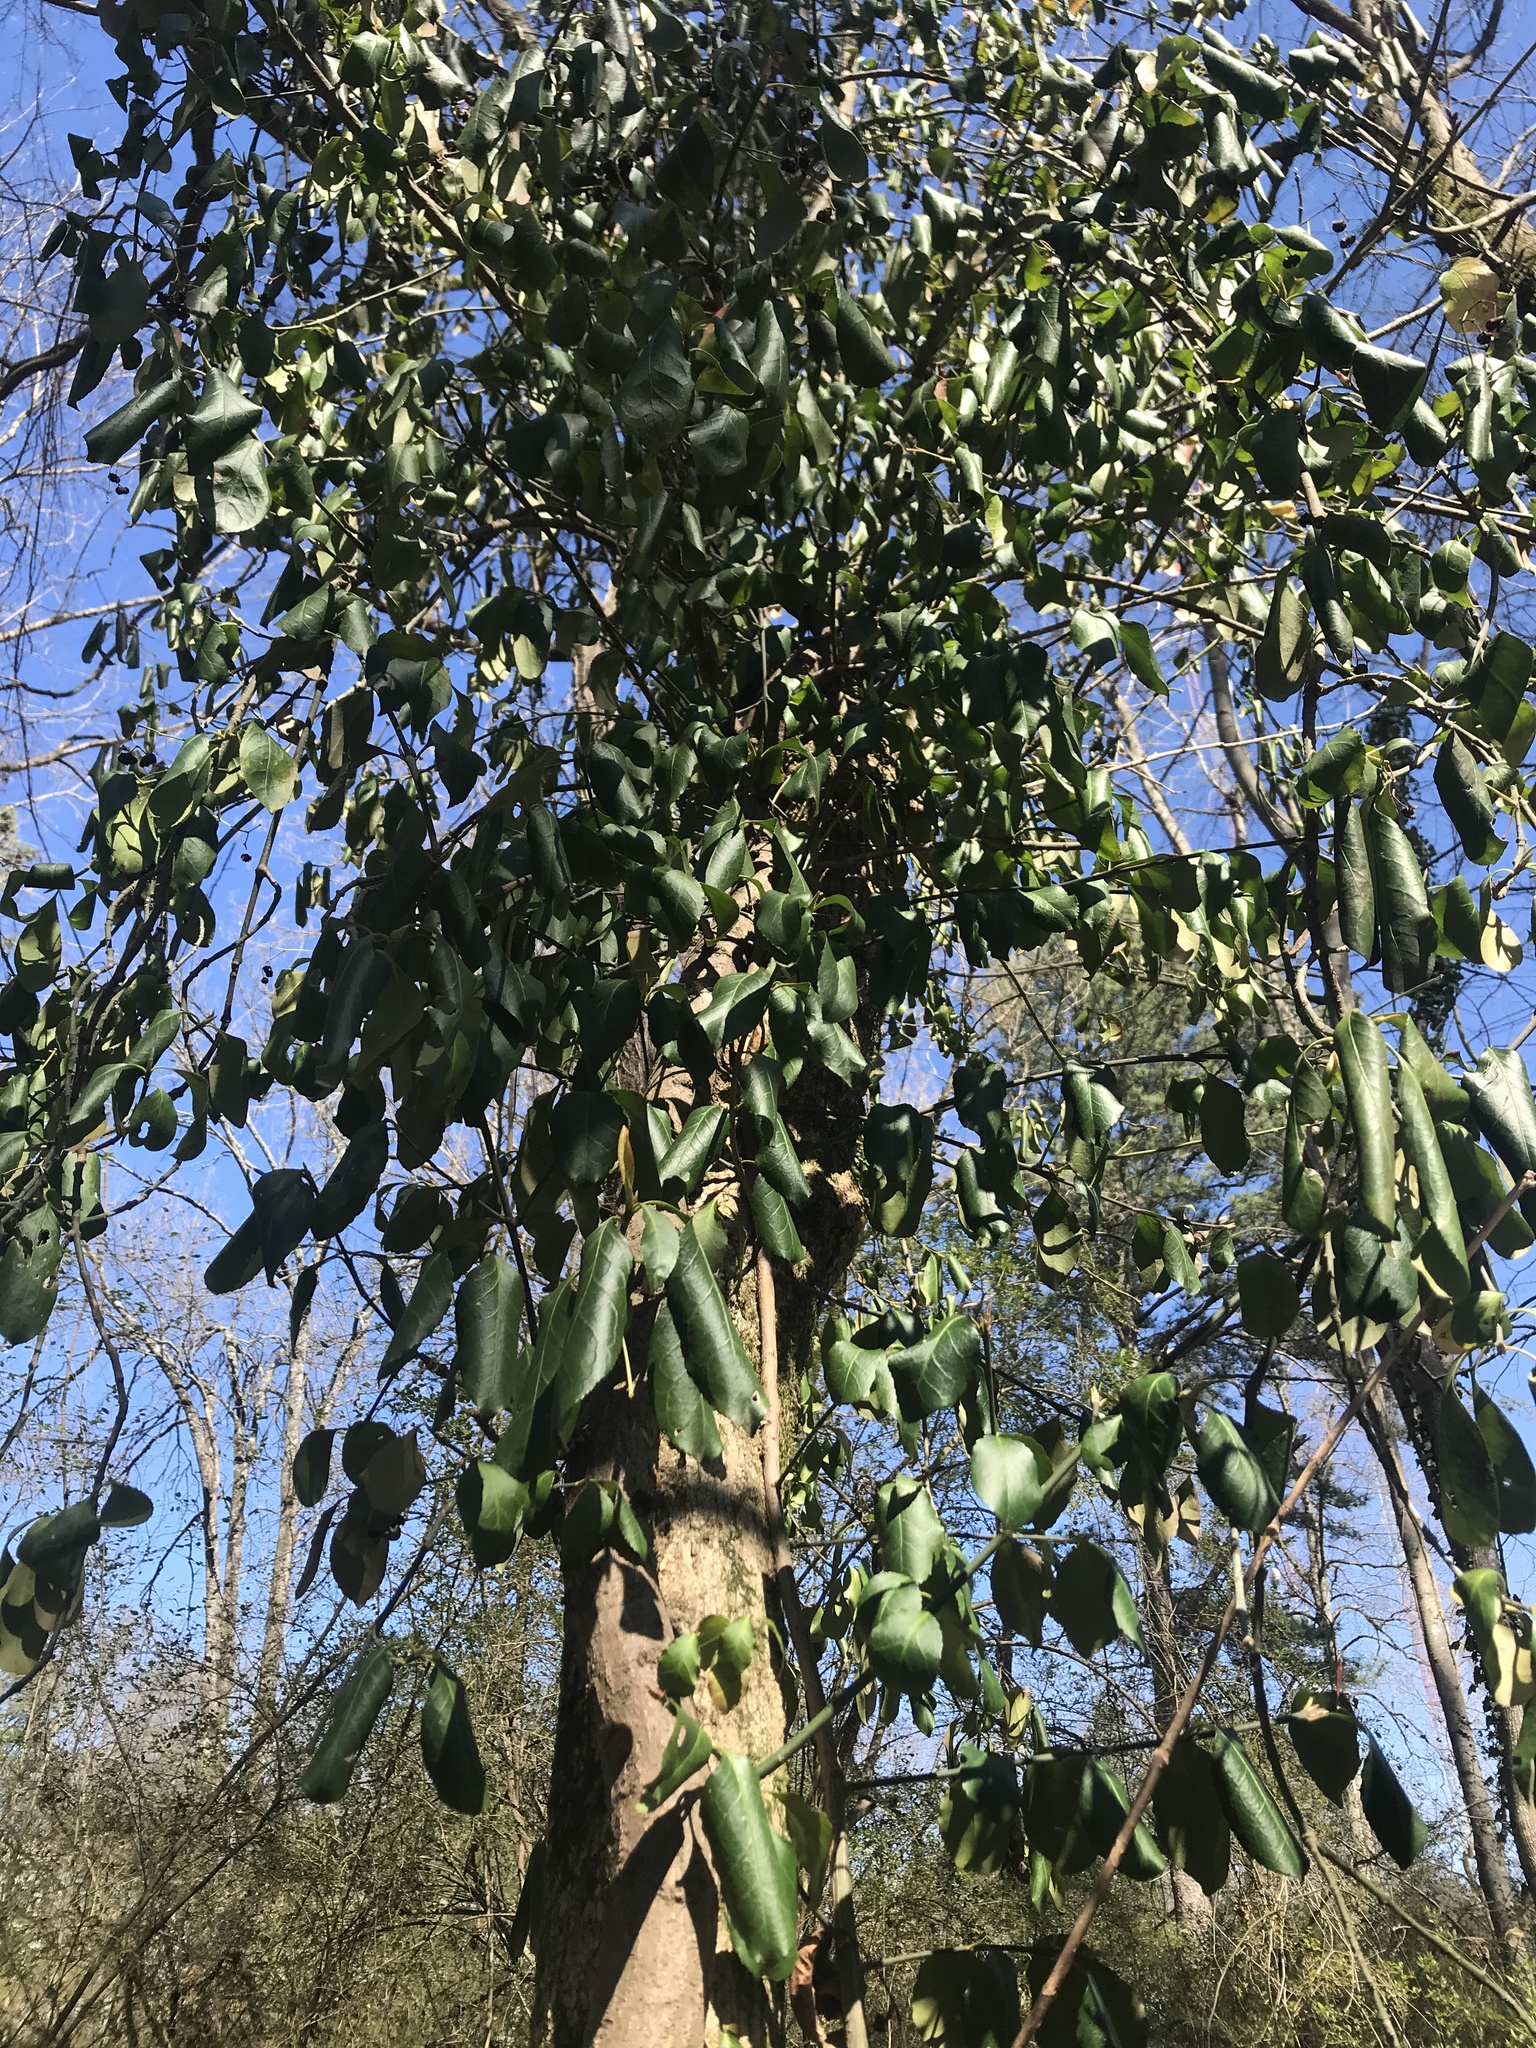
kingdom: Plantae
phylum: Tracheophyta
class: Magnoliopsida
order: Celastrales
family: Celastraceae
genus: Euonymus
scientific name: Euonymus fortunei
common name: Climbing euonymus
